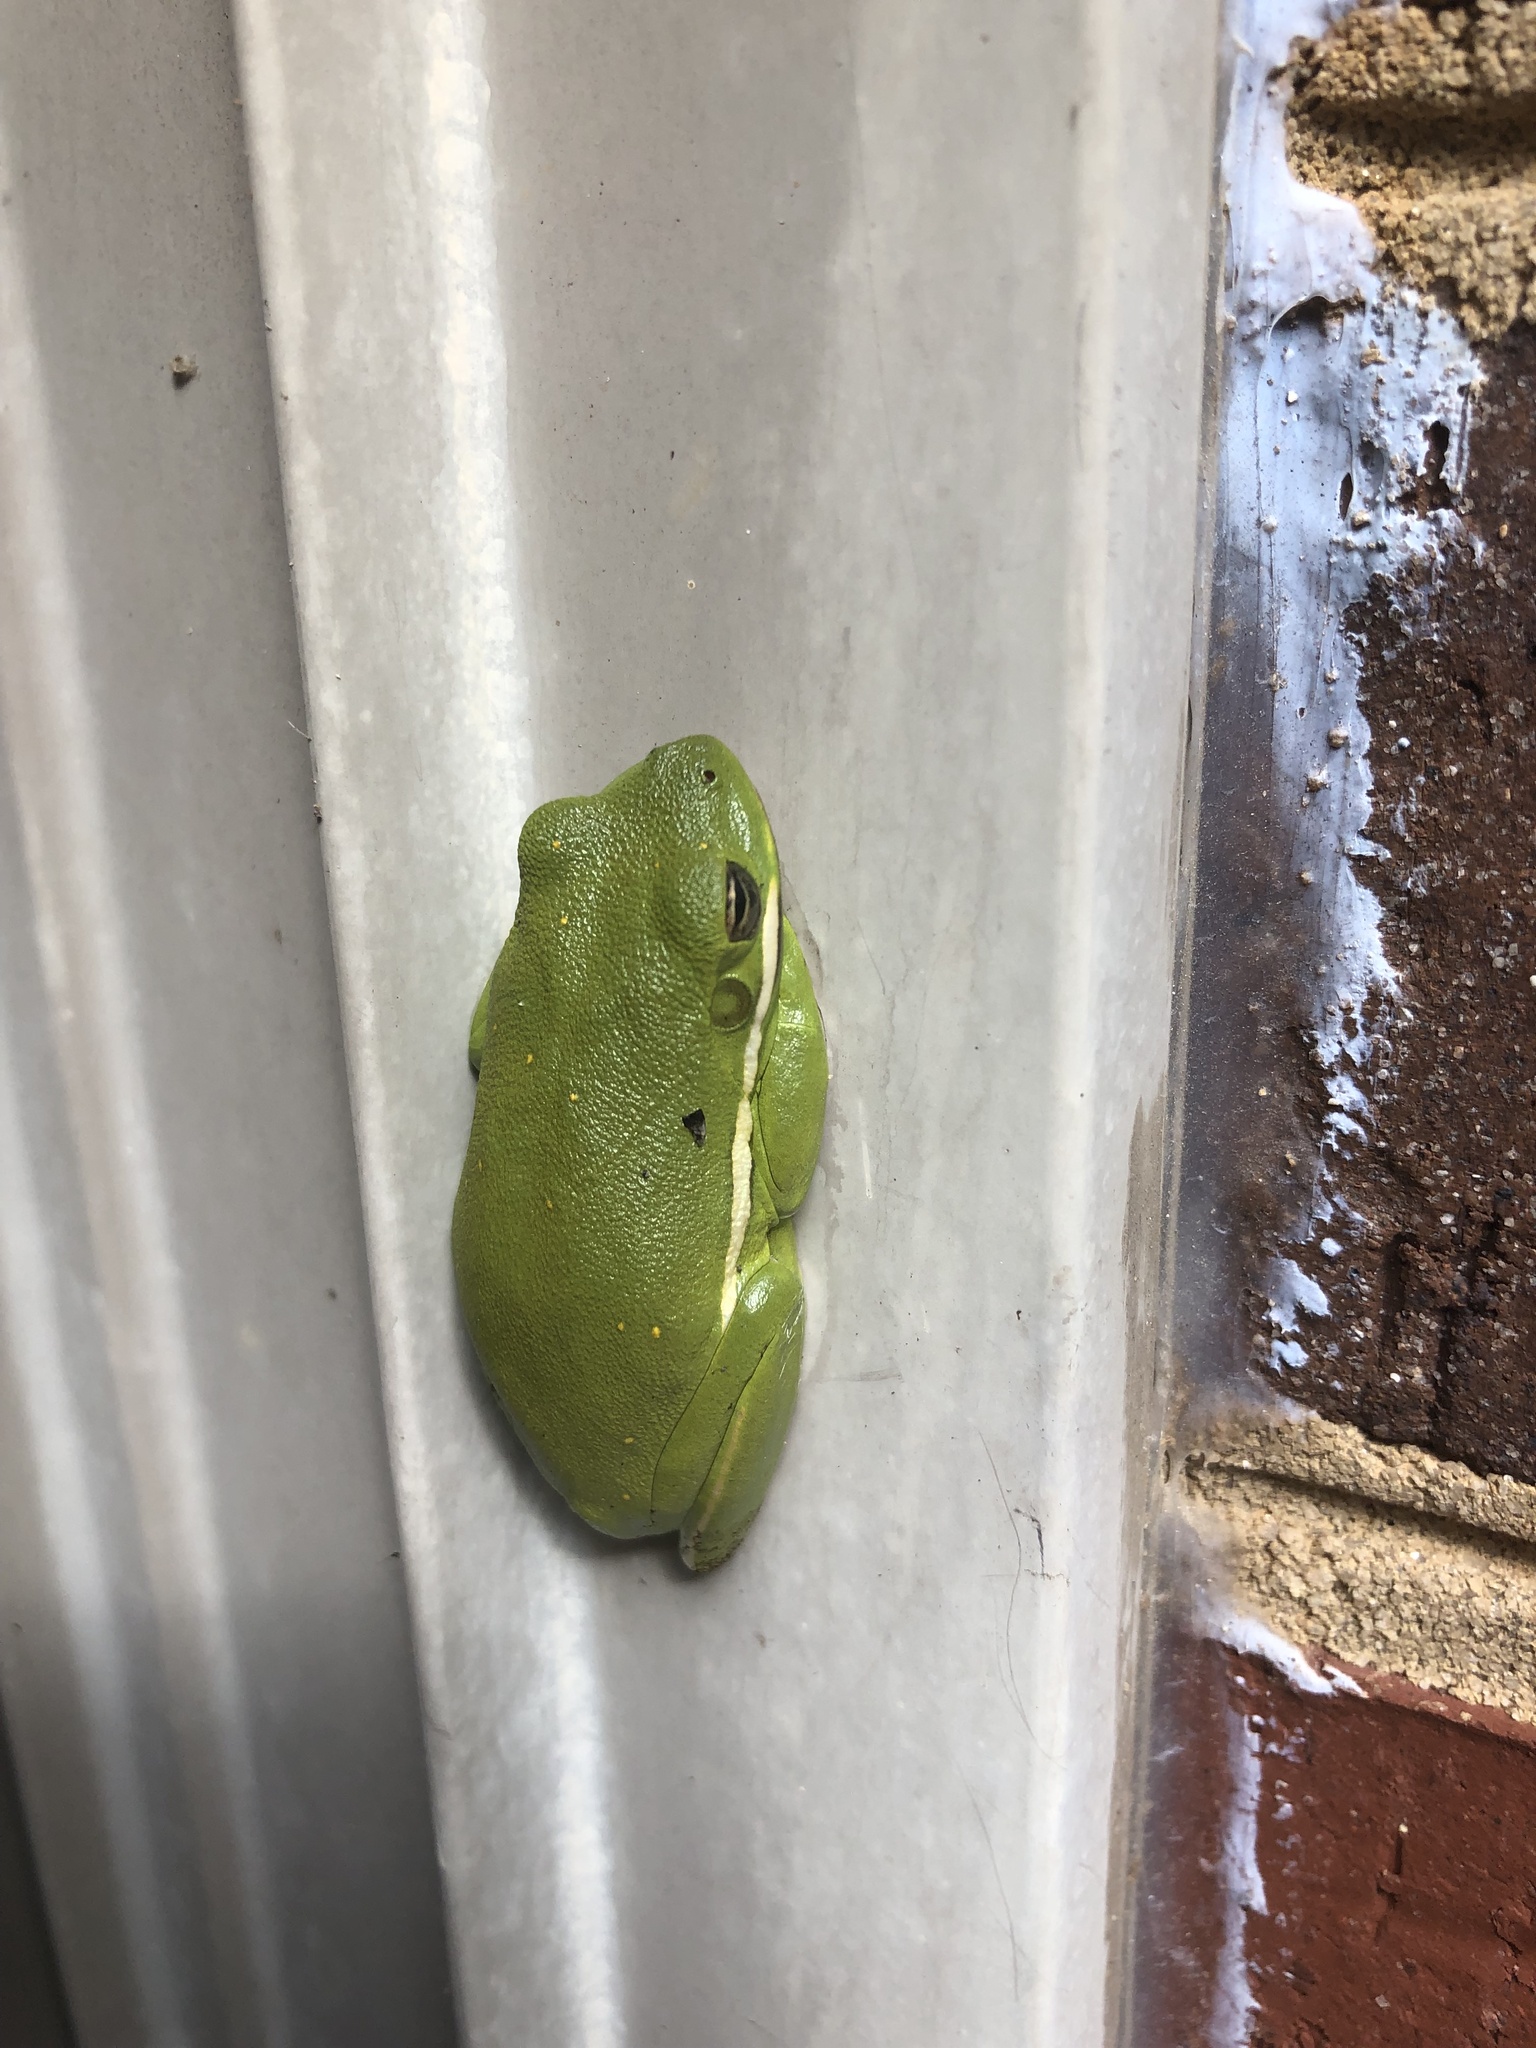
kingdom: Animalia
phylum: Chordata
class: Amphibia
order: Anura
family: Hylidae
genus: Dryophytes
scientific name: Dryophytes cinereus
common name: Green treefrog
